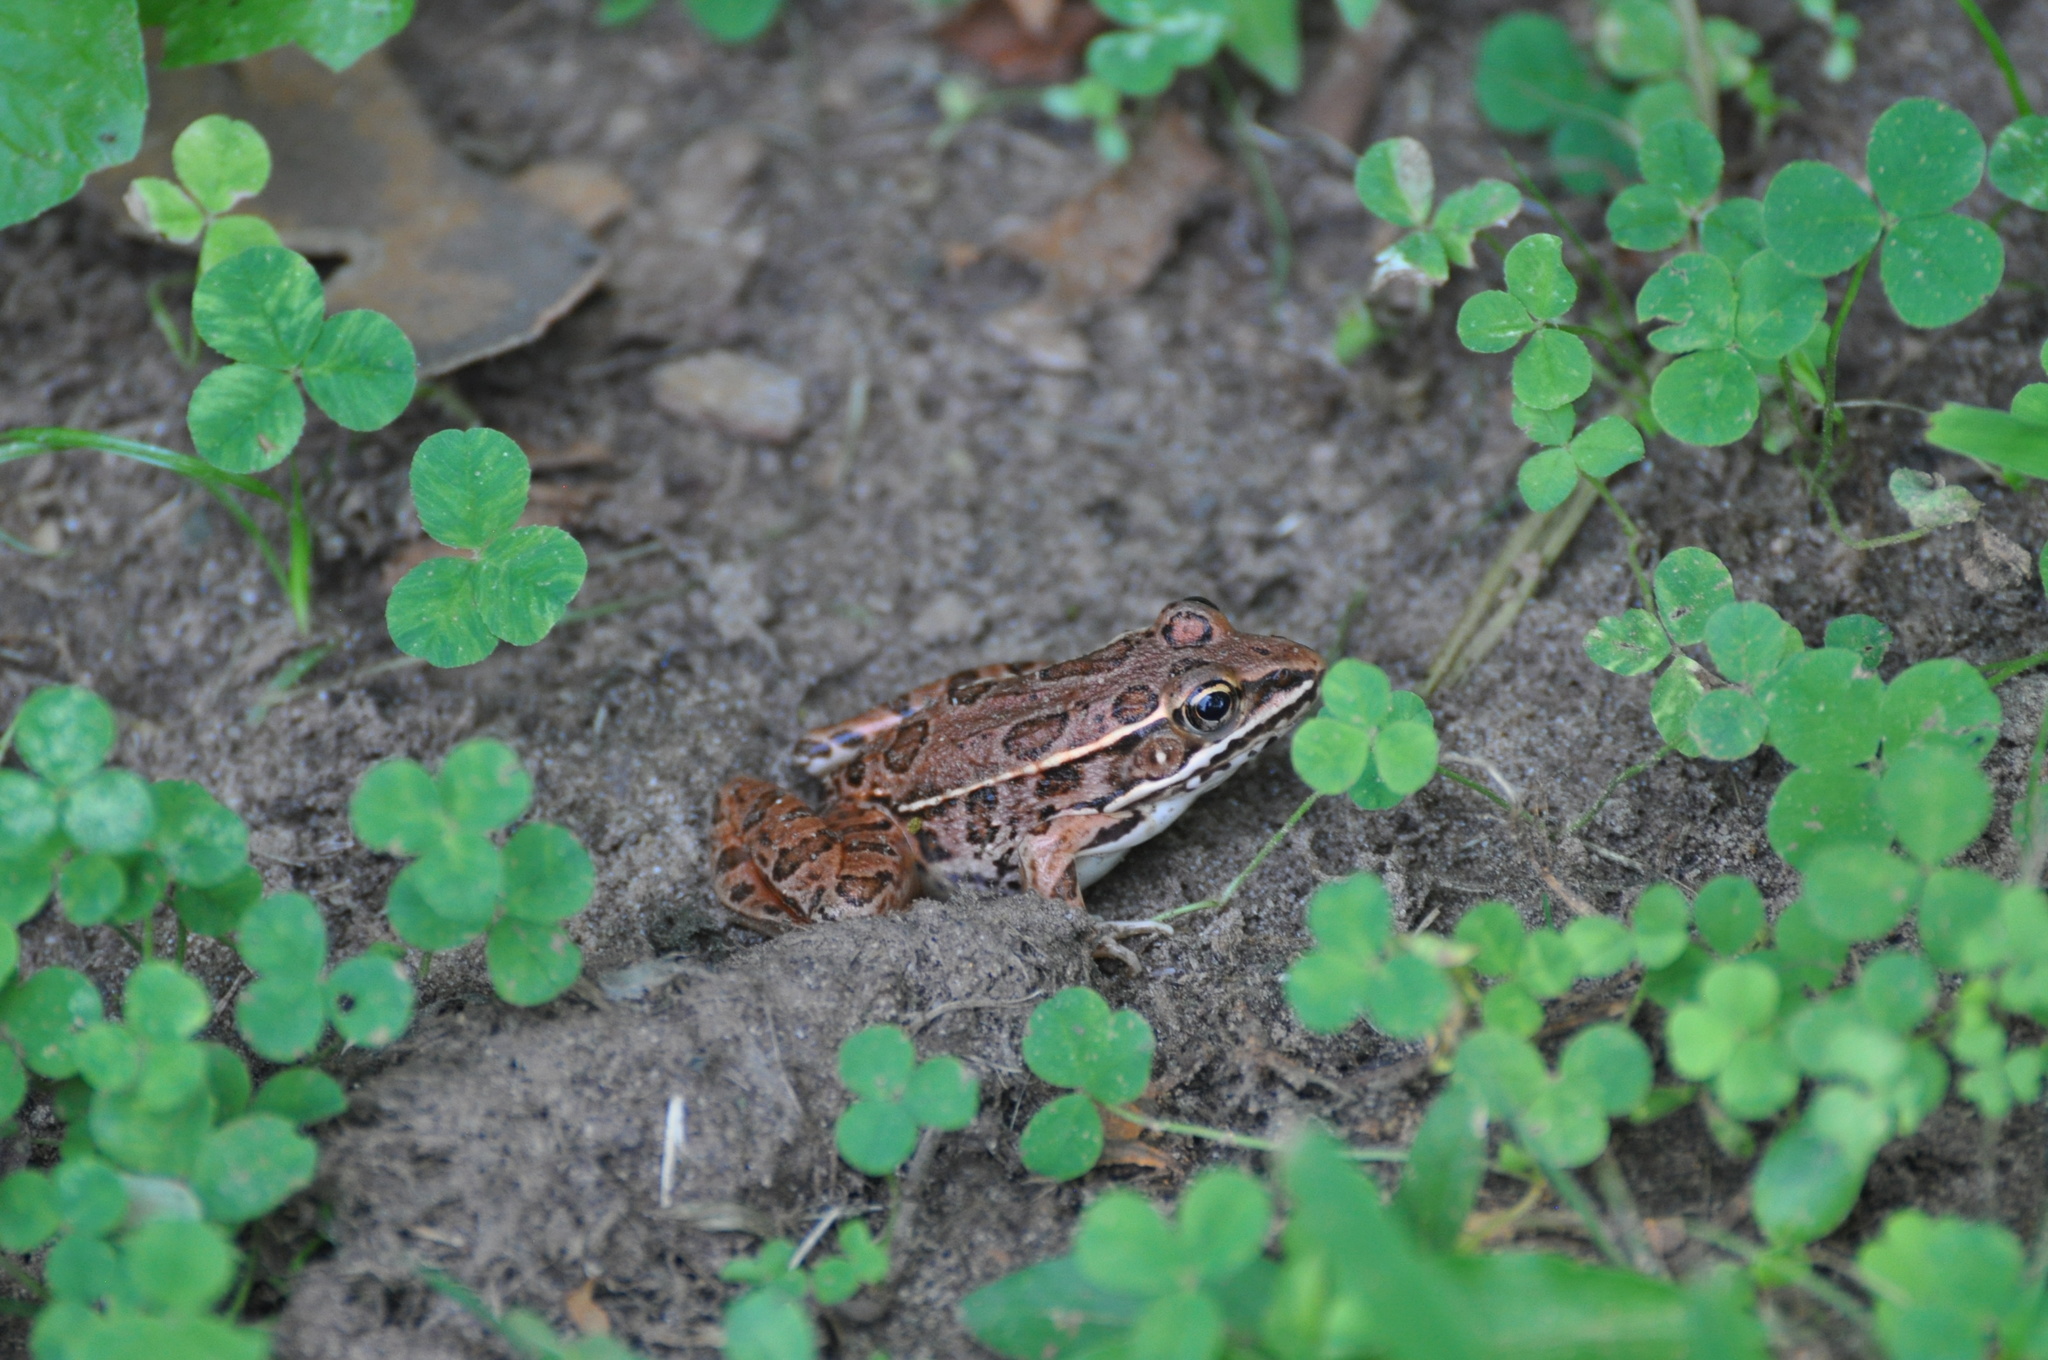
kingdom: Animalia
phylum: Chordata
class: Amphibia
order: Anura
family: Ranidae
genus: Lithobates
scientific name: Lithobates blairi
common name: Plains leopard frog
